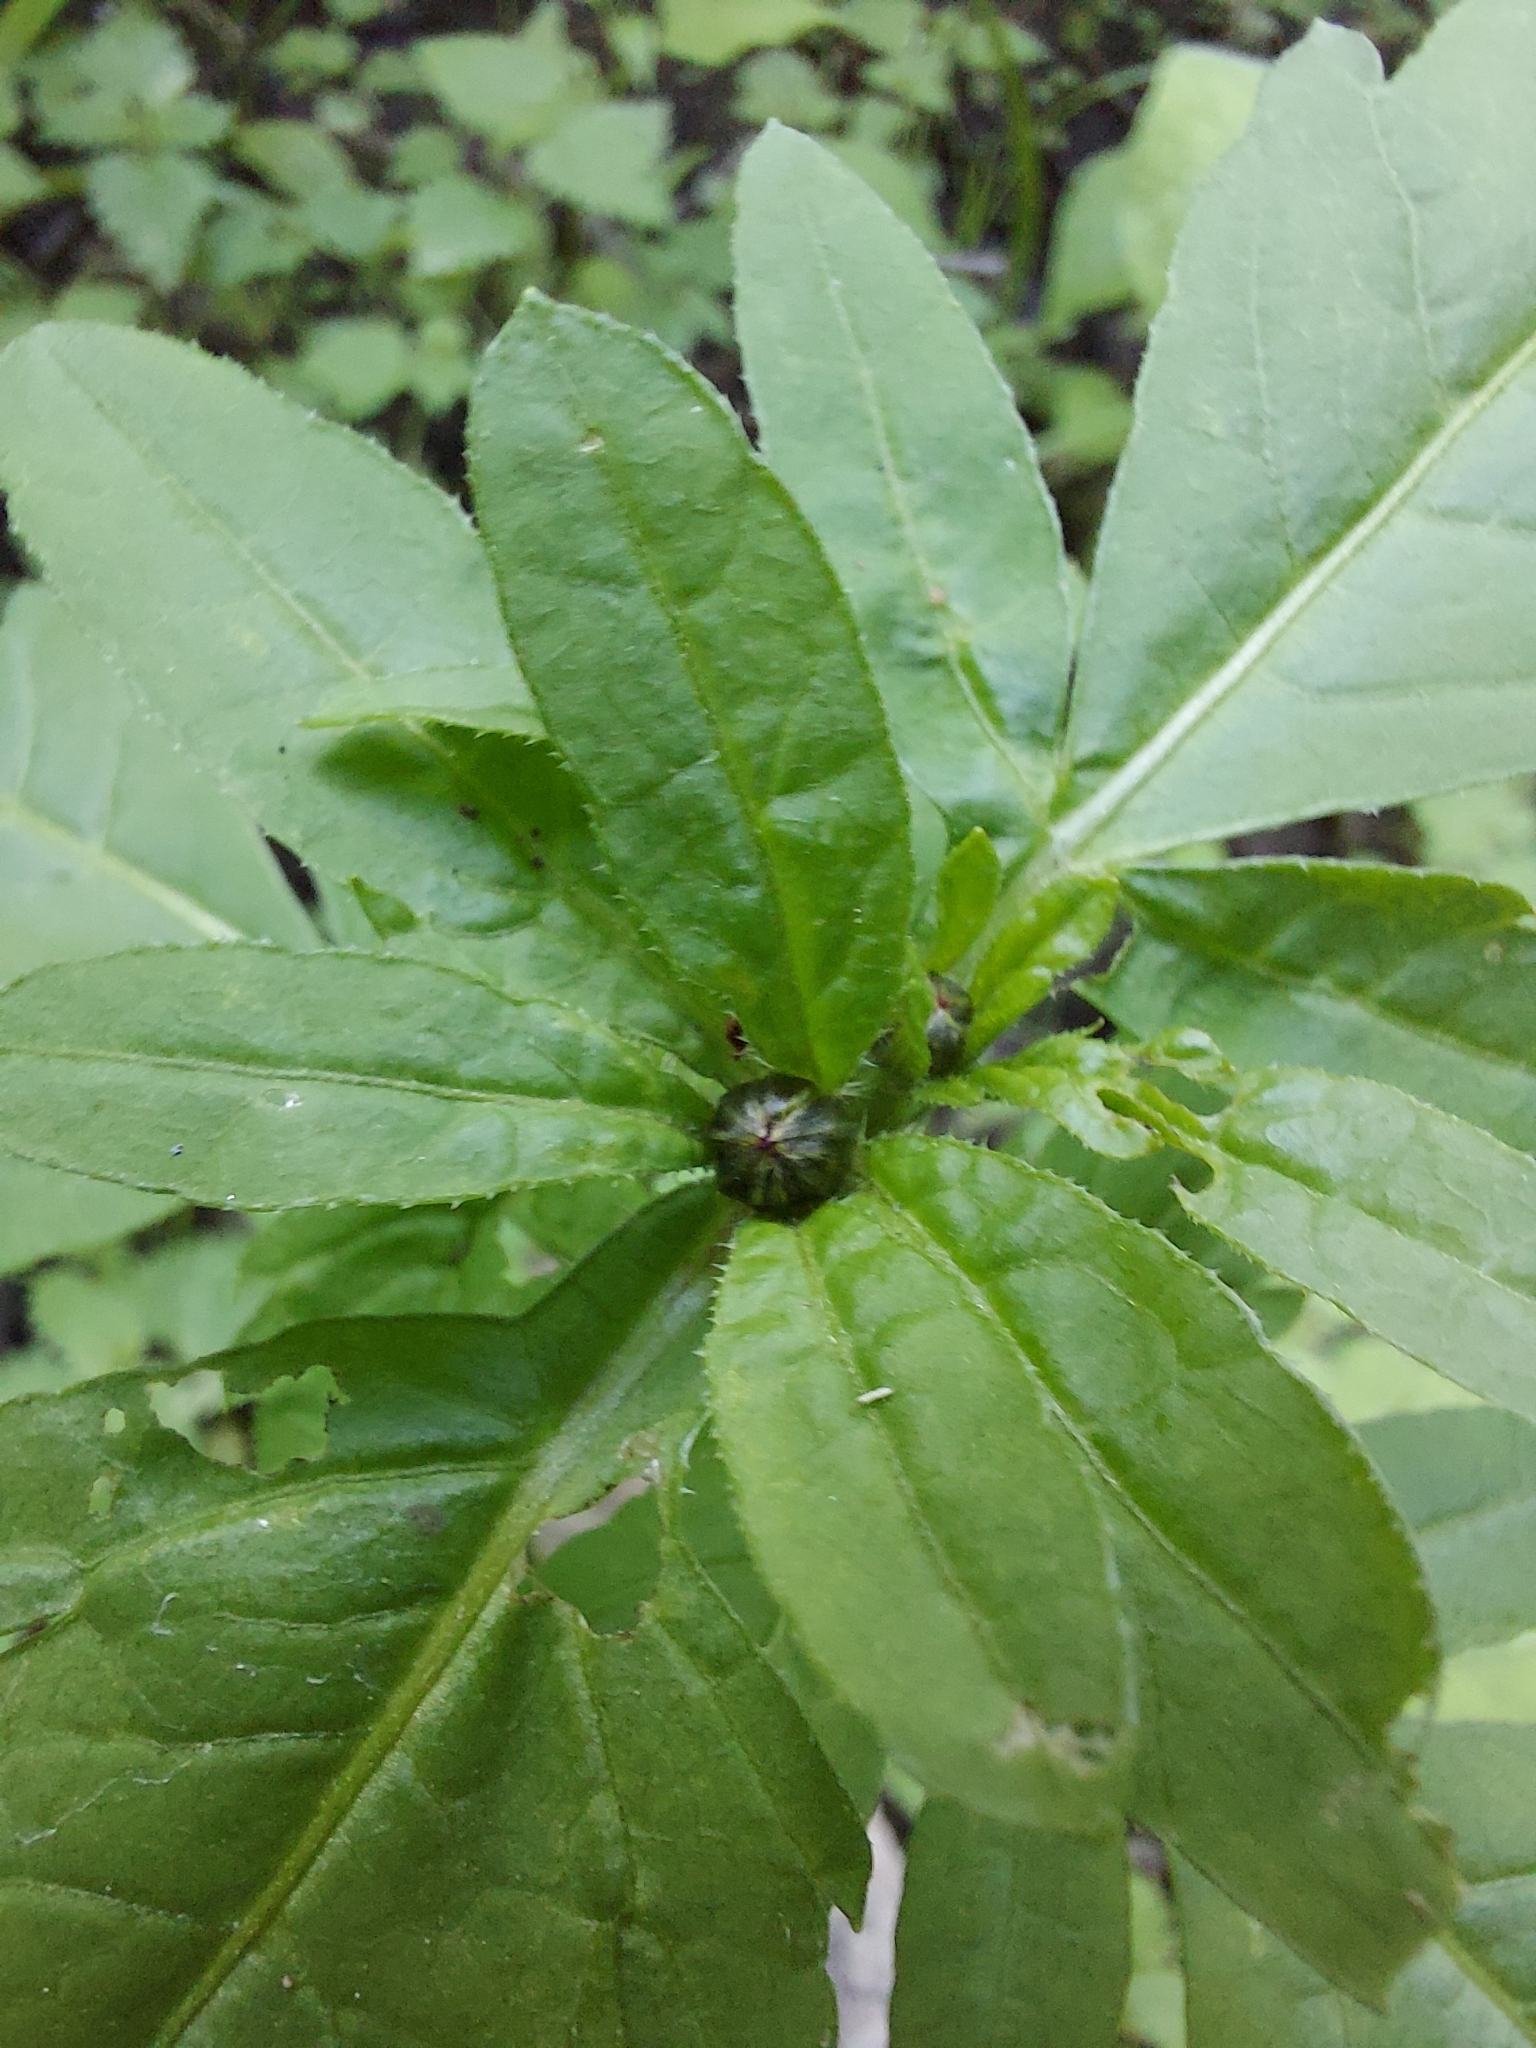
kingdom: Plantae
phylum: Tracheophyta
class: Magnoliopsida
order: Asterales
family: Asteraceae
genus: Bidens
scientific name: Bidens tripartita
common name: Trifid bur-marigold
